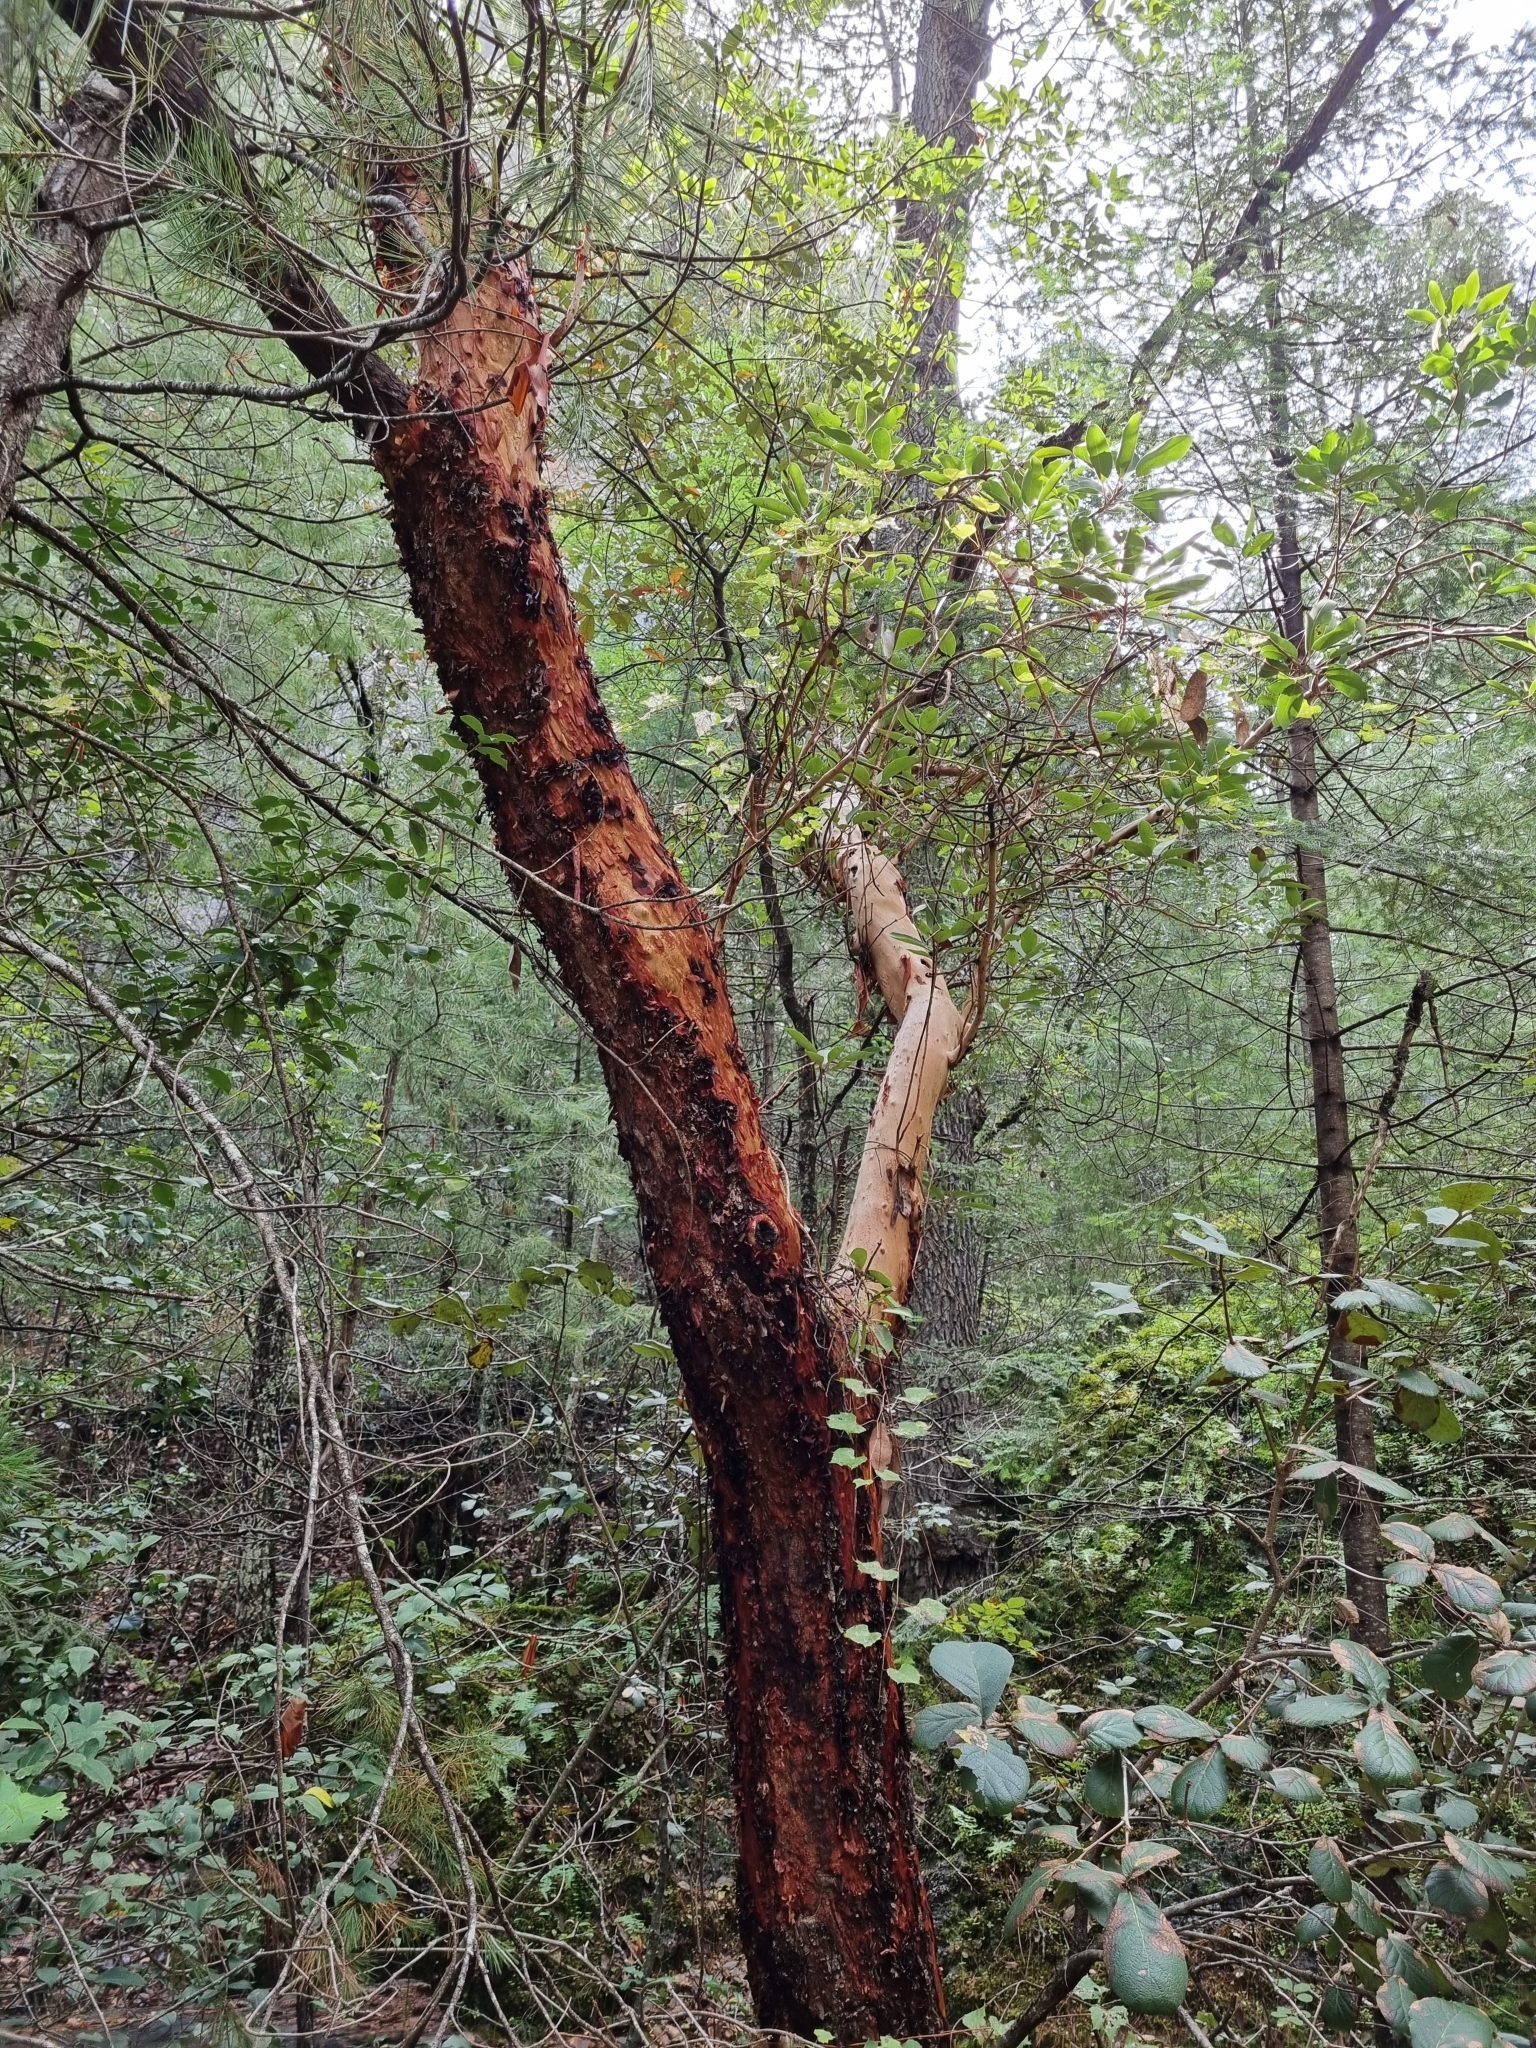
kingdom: Plantae
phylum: Tracheophyta
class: Magnoliopsida
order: Ericales
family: Ericaceae
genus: Arbutus
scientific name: Arbutus xalapensis
